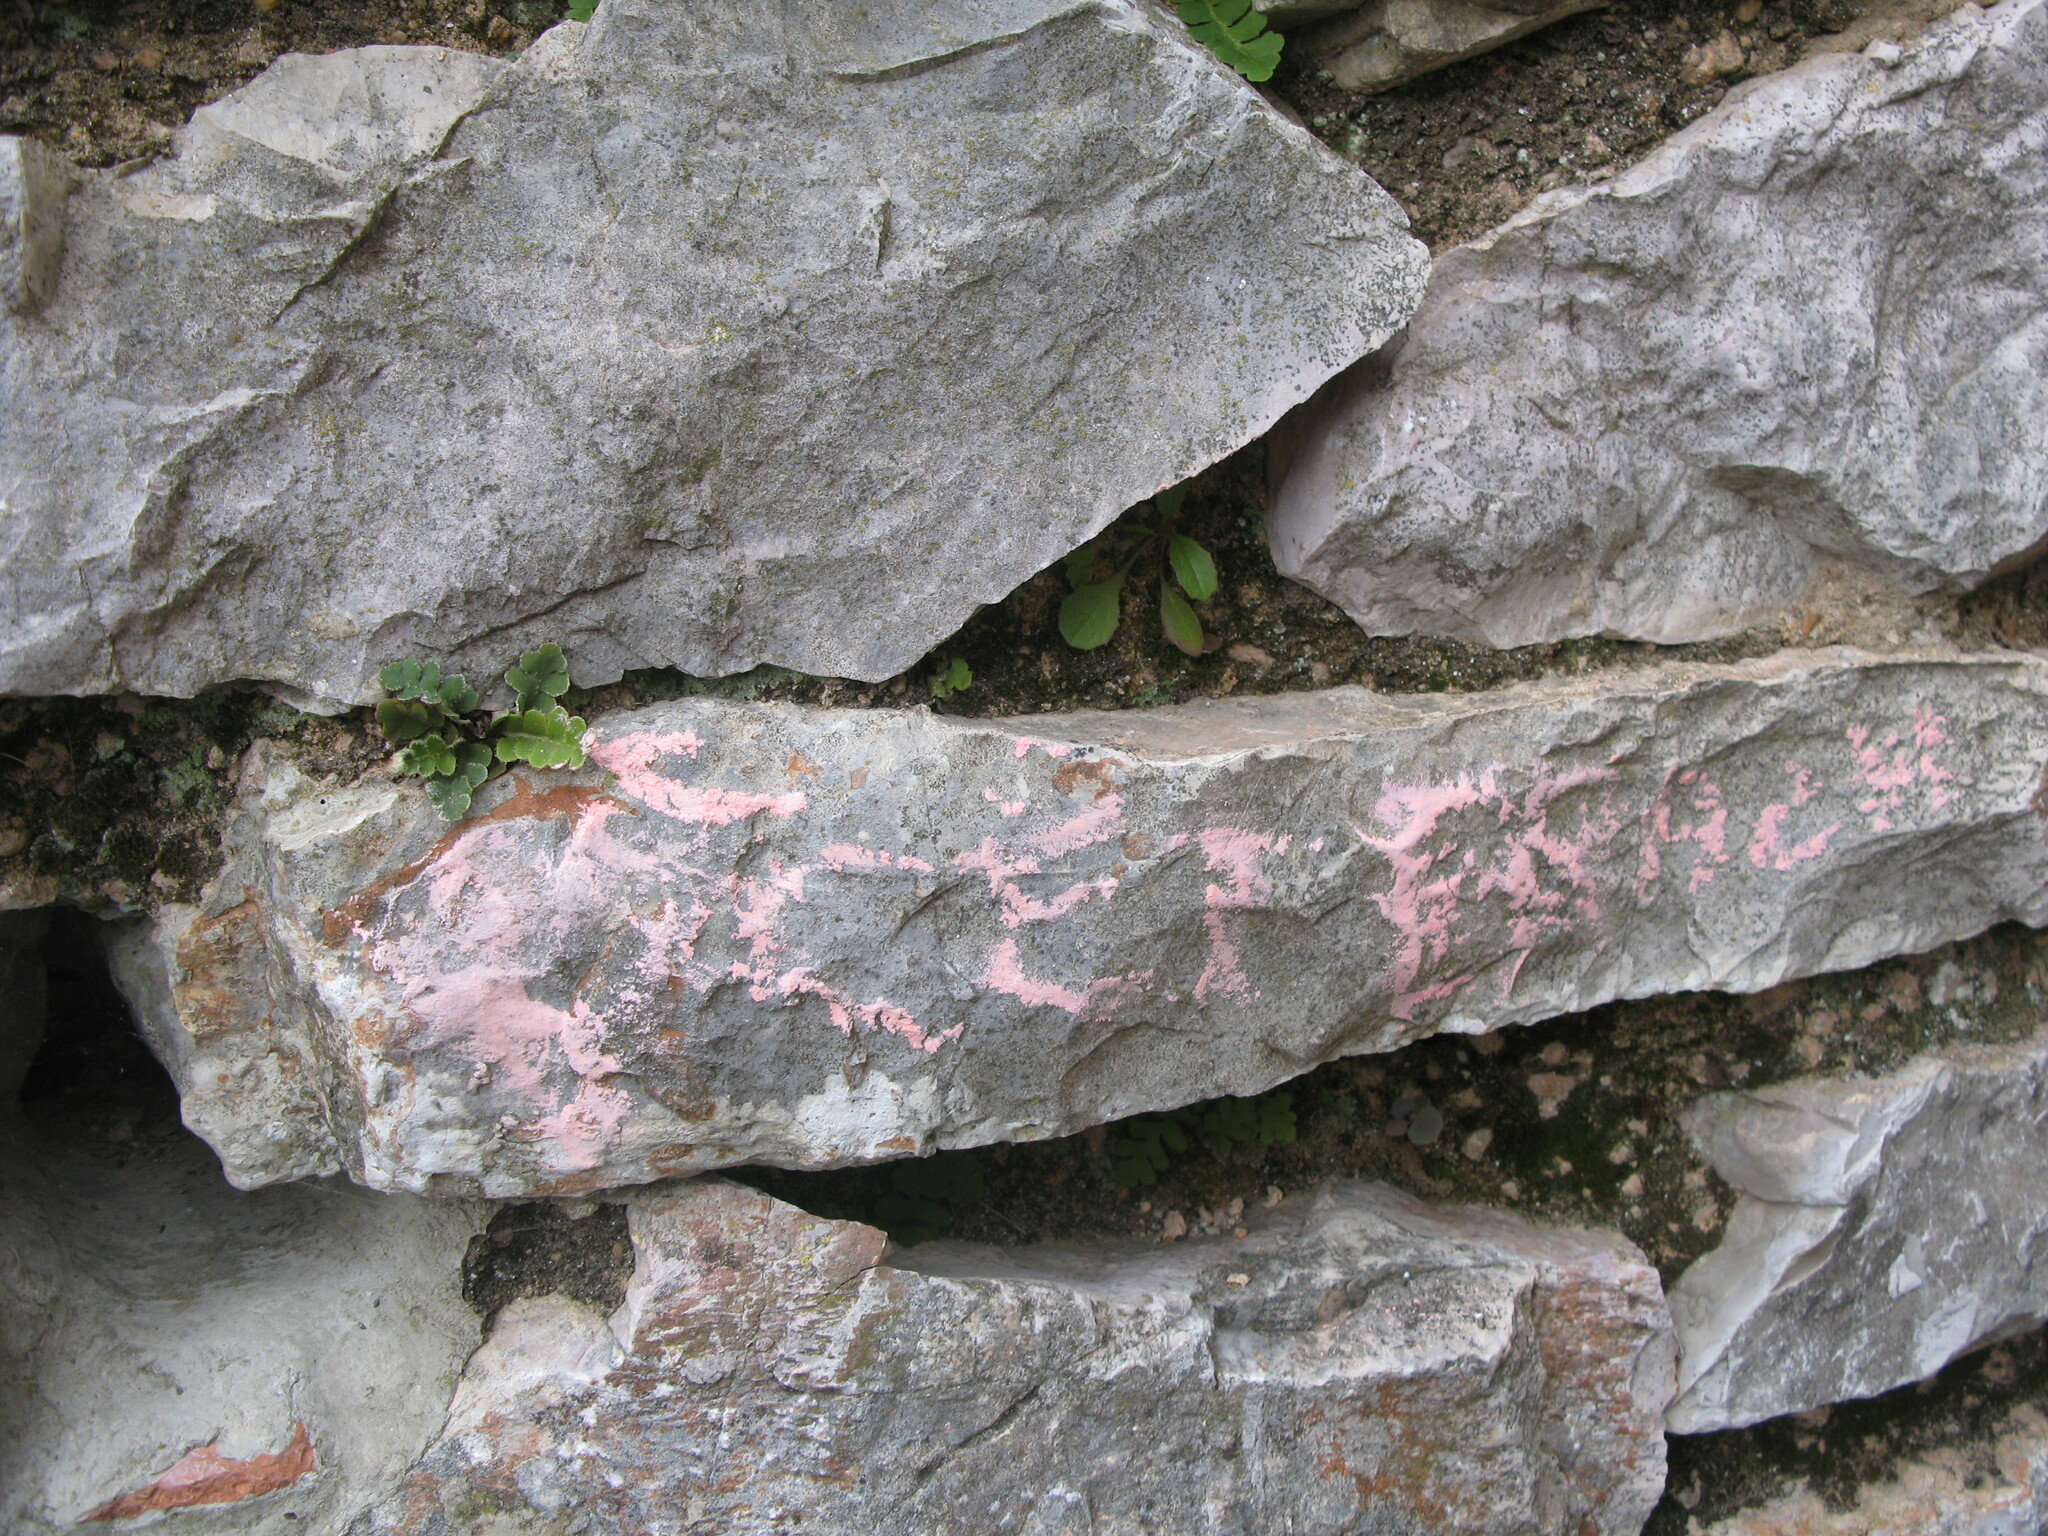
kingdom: Plantae
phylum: Tracheophyta
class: Polypodiopsida
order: Polypodiales
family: Aspleniaceae
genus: Asplenium
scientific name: Asplenium ceterach
